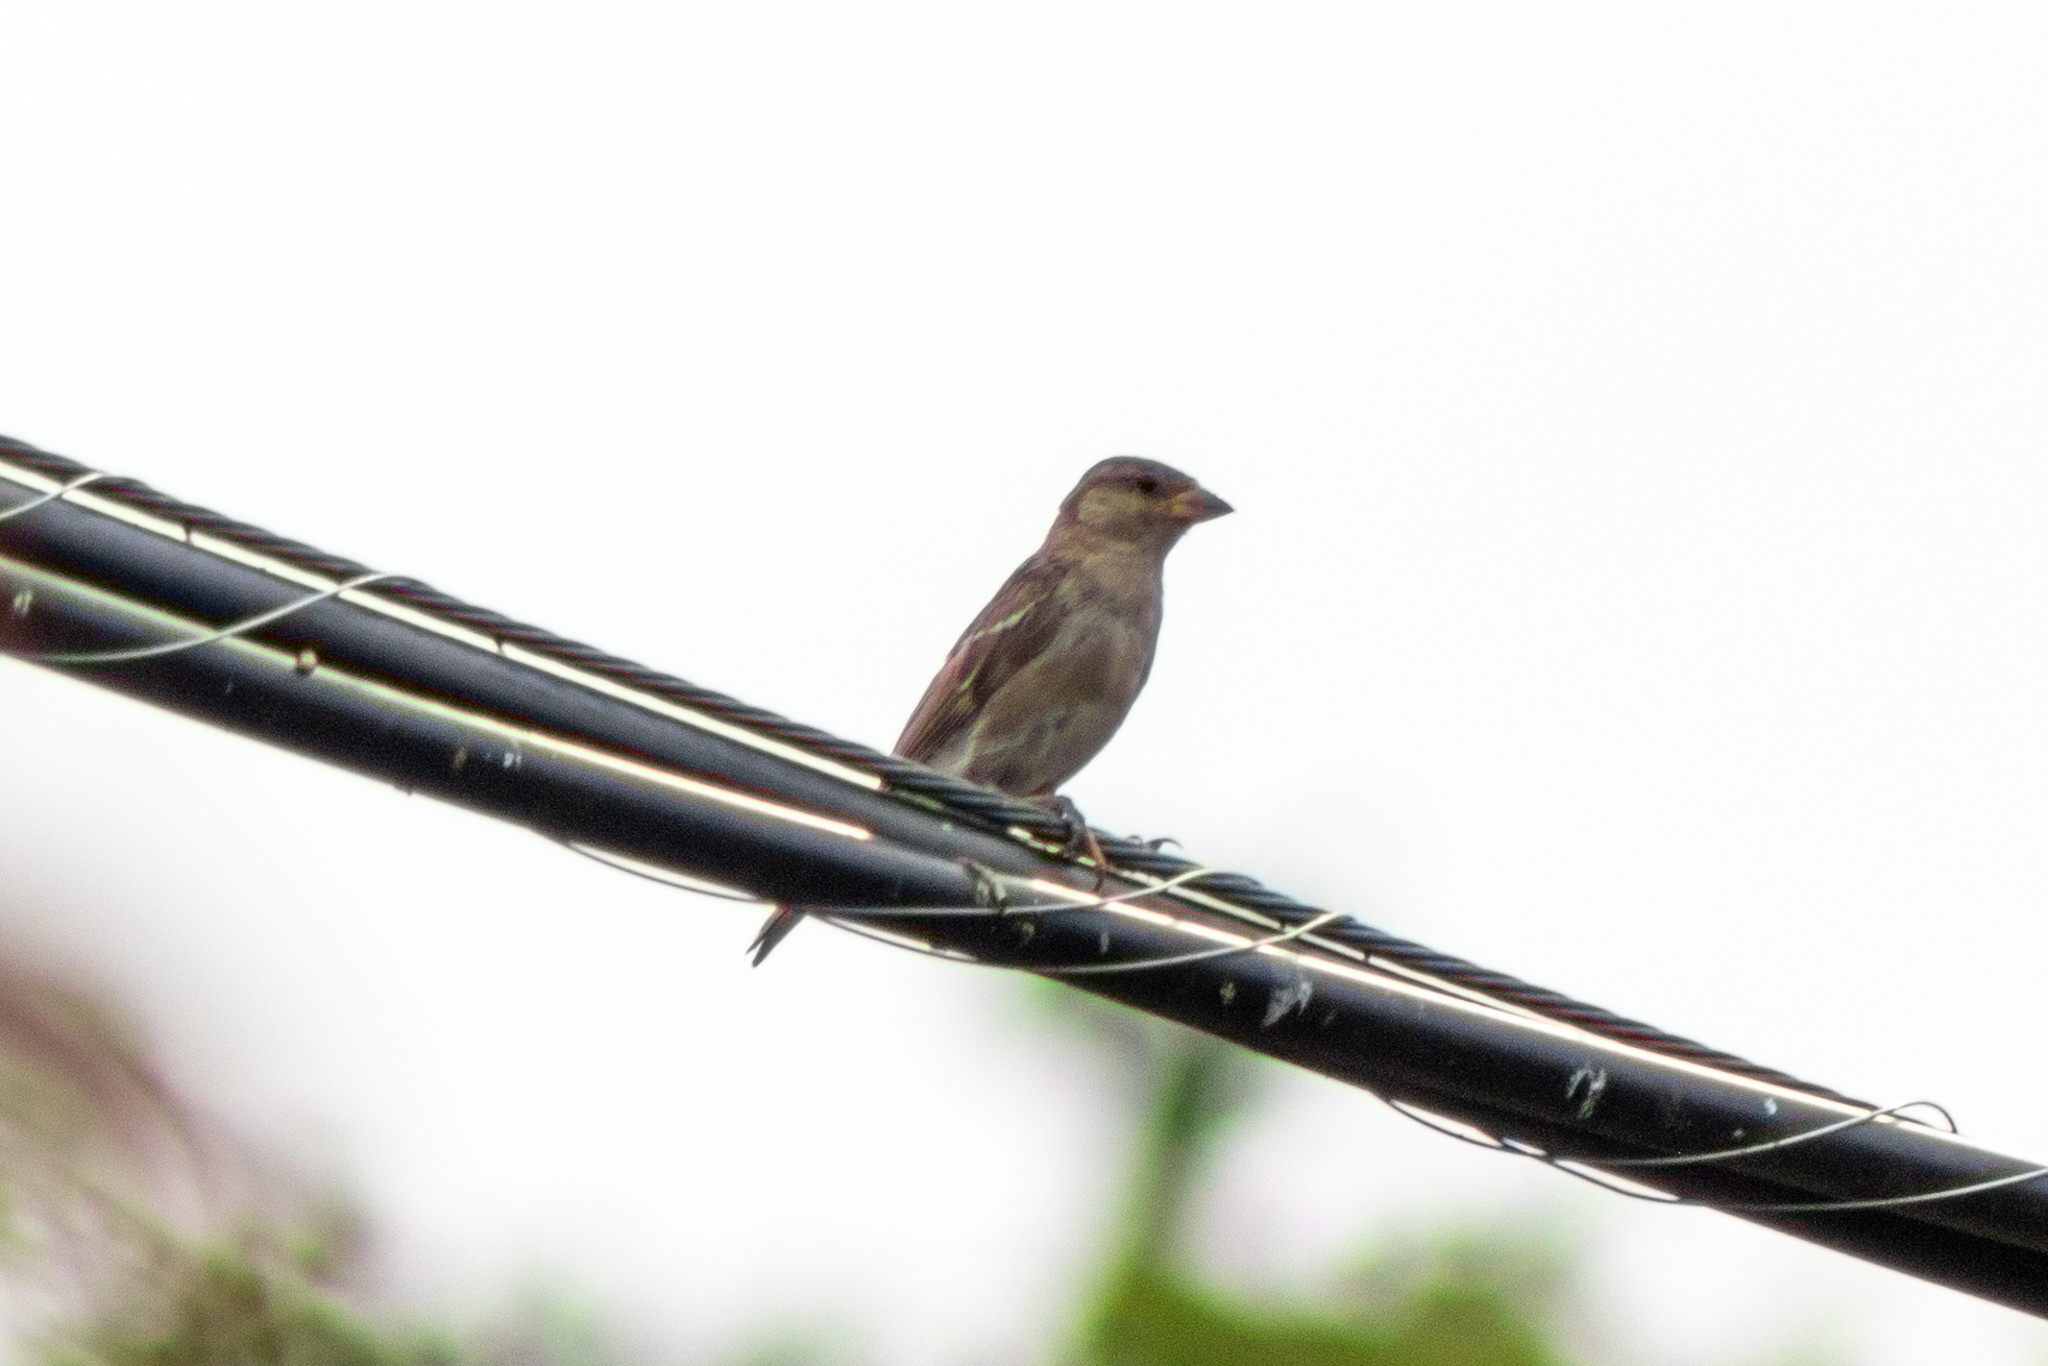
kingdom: Animalia
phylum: Chordata
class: Aves
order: Passeriformes
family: Passeridae
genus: Passer
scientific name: Passer domesticus
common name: House sparrow
